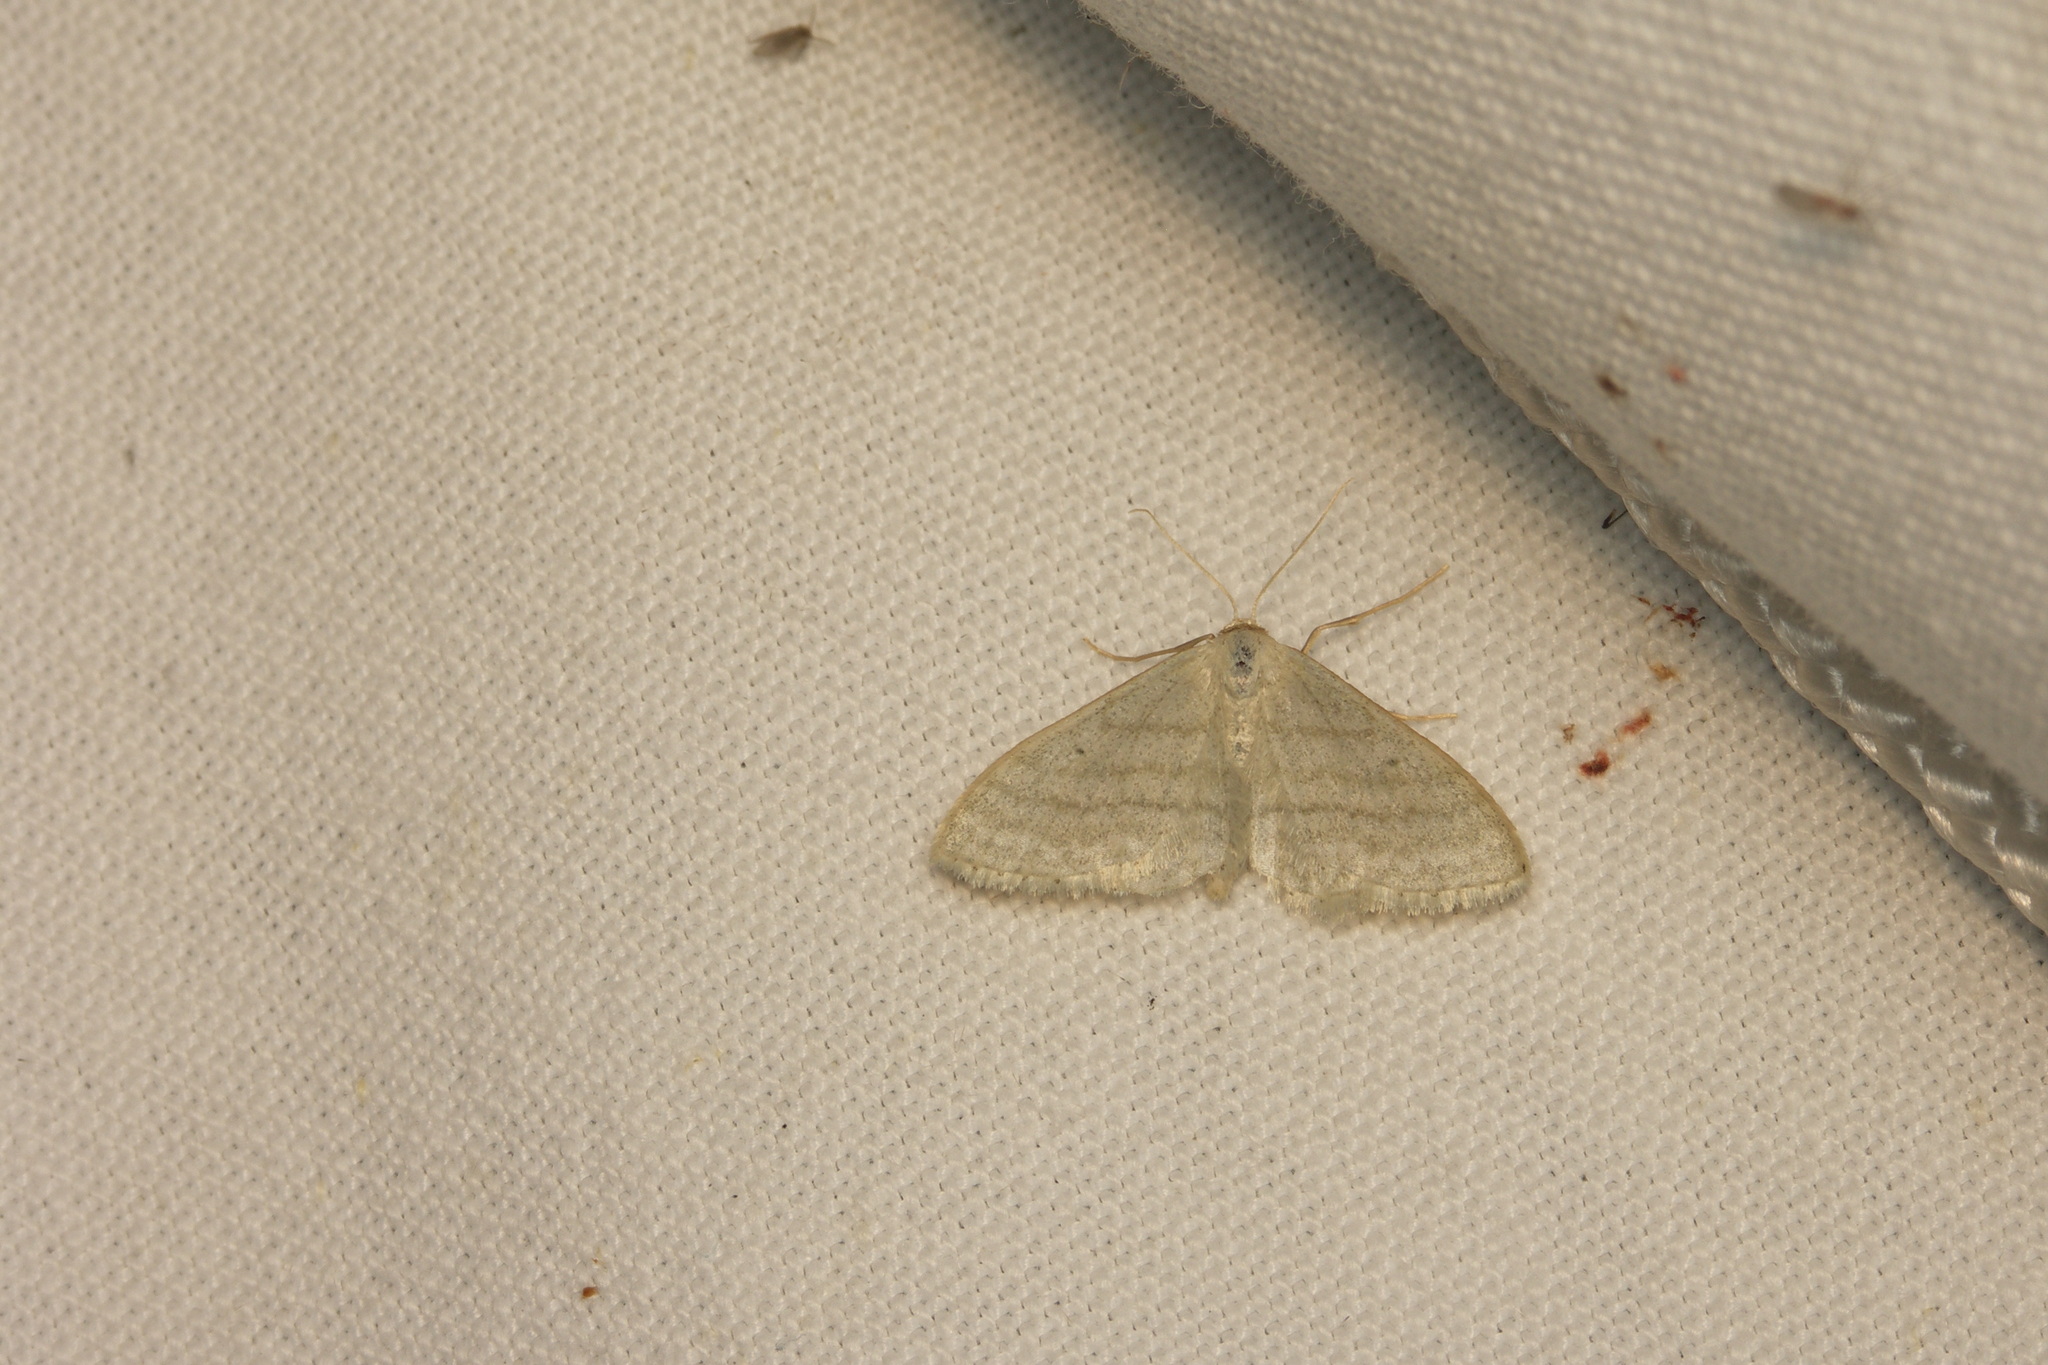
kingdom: Animalia
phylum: Arthropoda
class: Insecta
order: Lepidoptera
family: Geometridae
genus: Idaea
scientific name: Idaea subsericeata
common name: Satin wave
